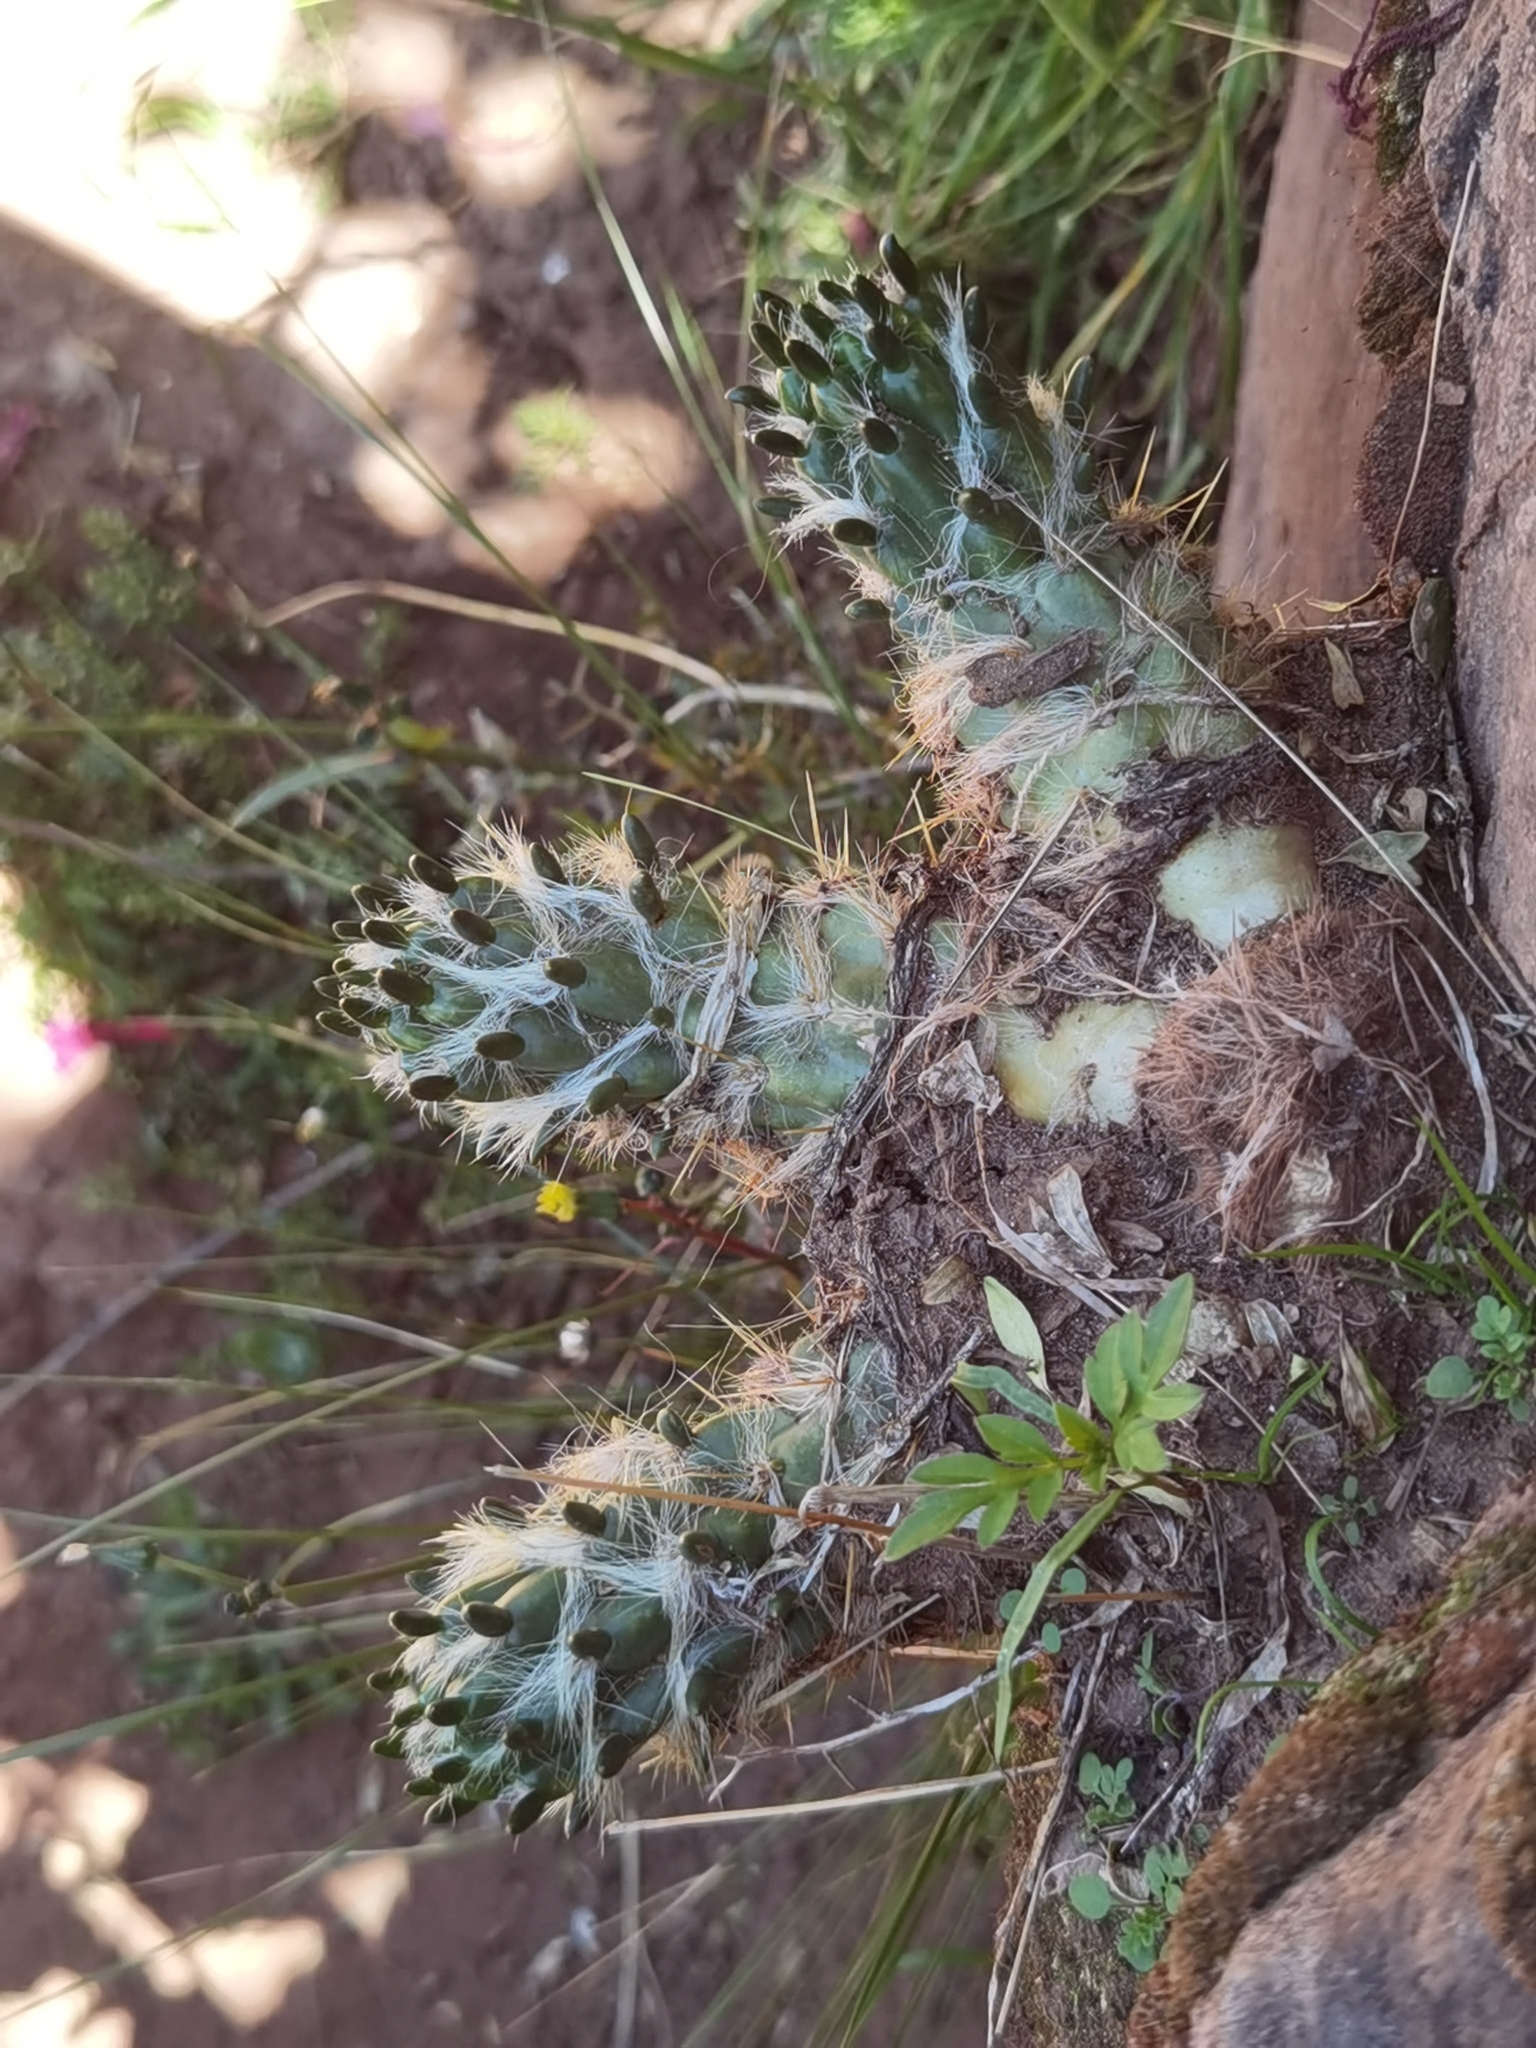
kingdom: Plantae
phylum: Tracheophyta
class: Magnoliopsida
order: Caryophyllales
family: Cactaceae
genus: Austrocylindropuntia
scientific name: Austrocylindropuntia floccosa
